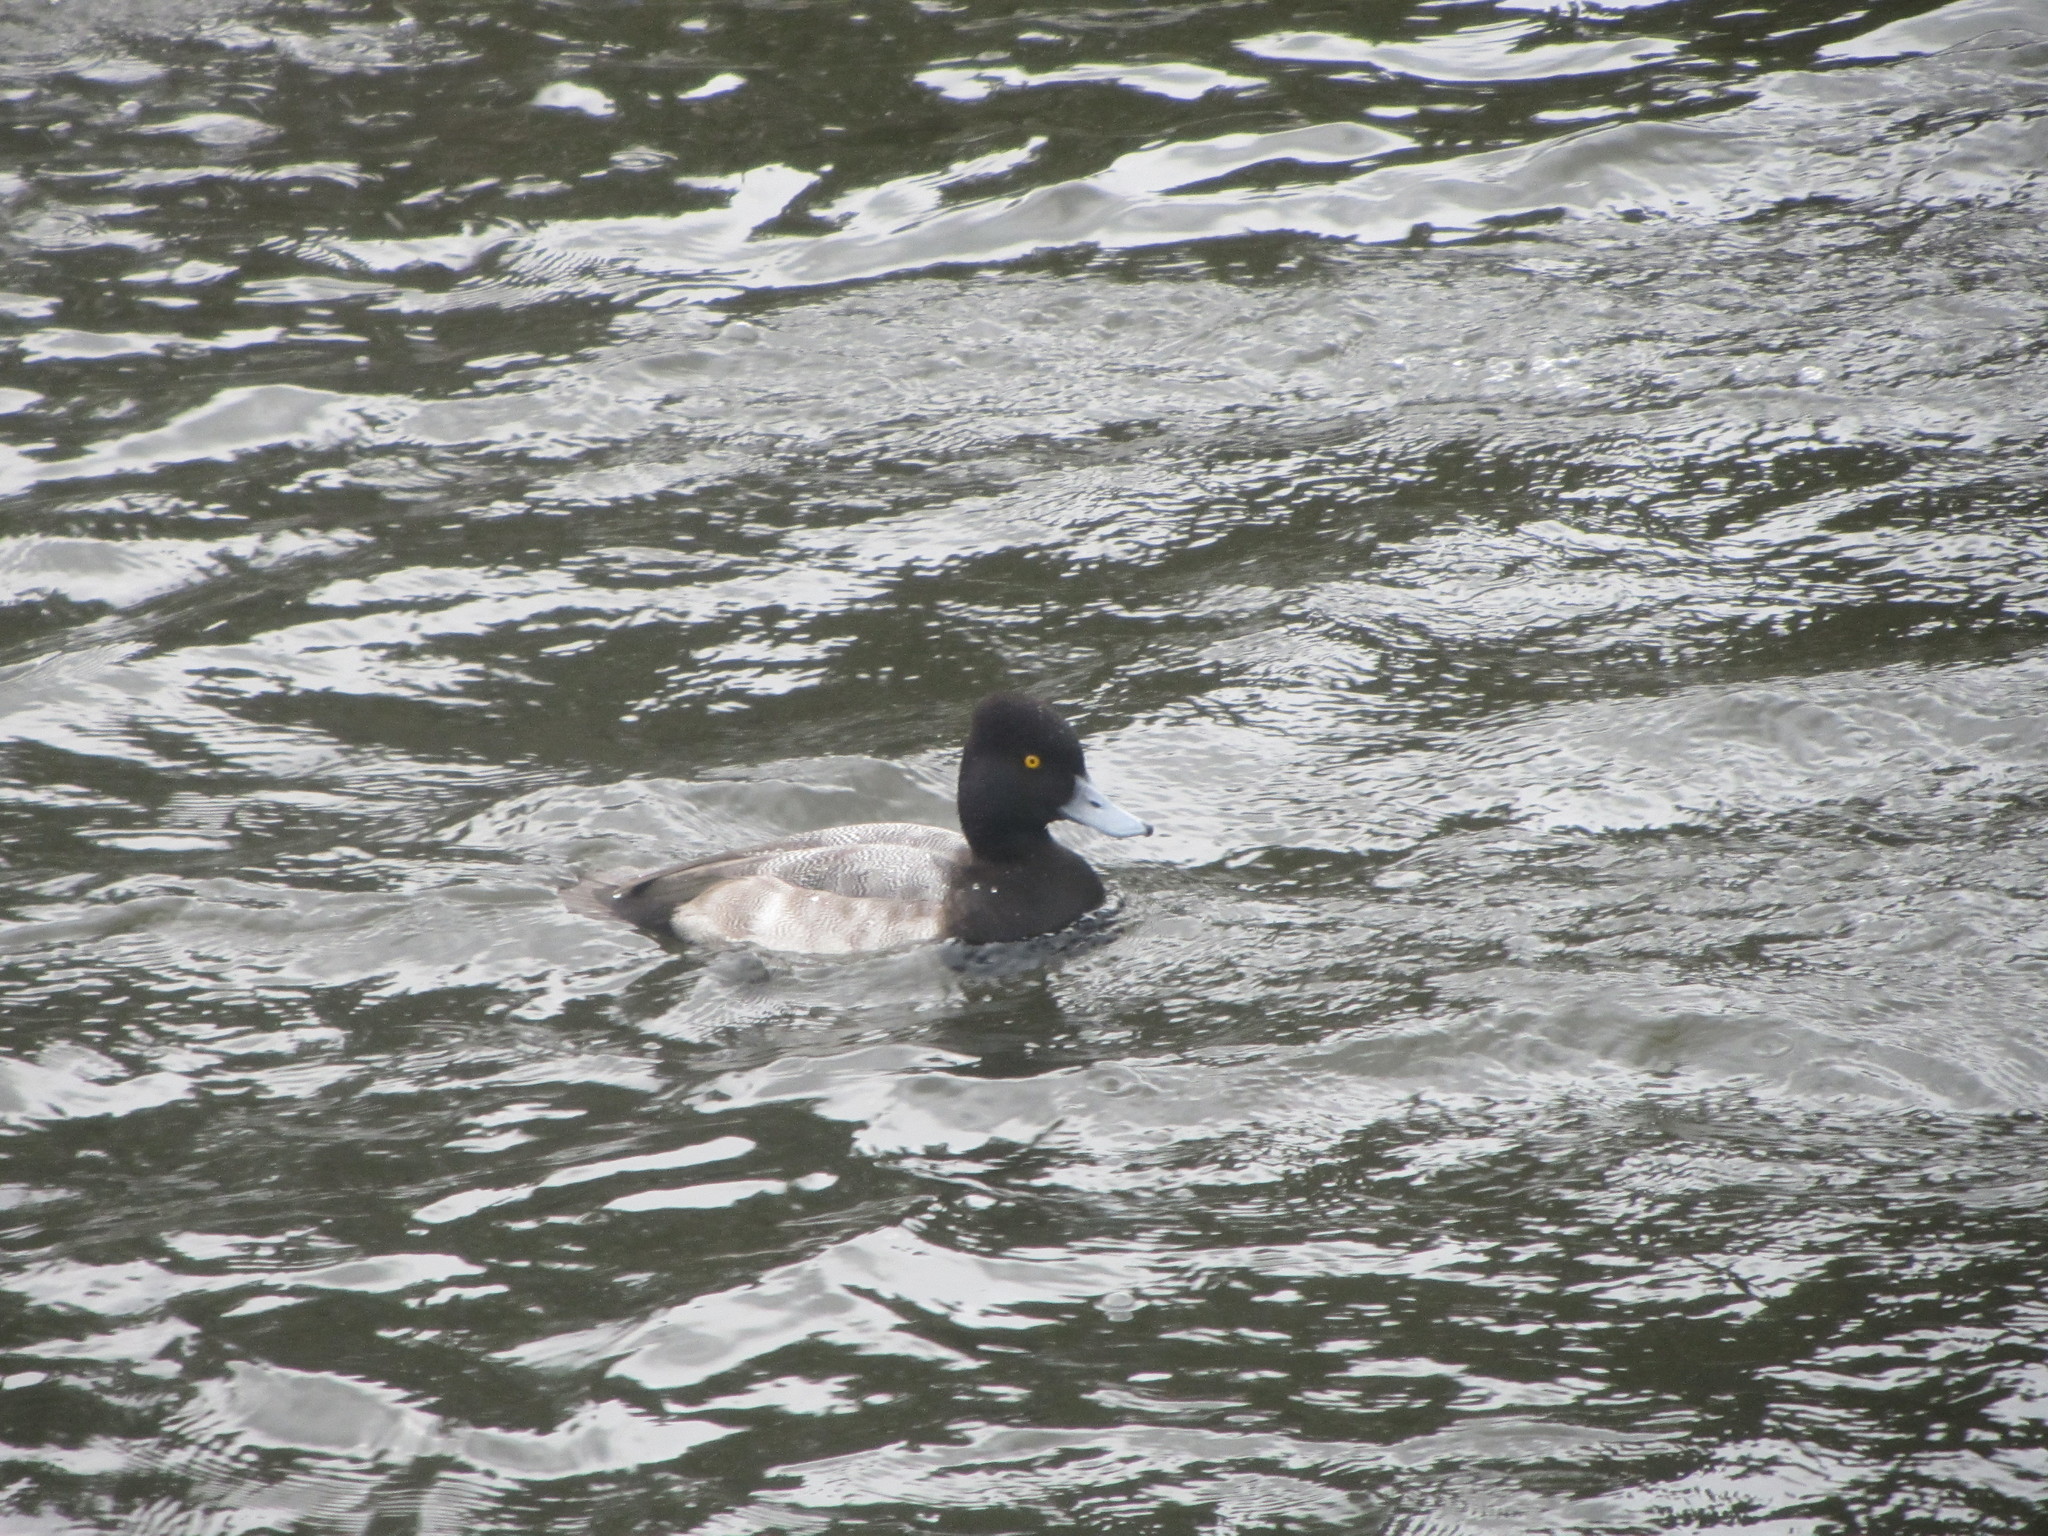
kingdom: Animalia
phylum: Chordata
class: Aves
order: Anseriformes
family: Anatidae
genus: Aythya
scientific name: Aythya affinis
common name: Lesser scaup
